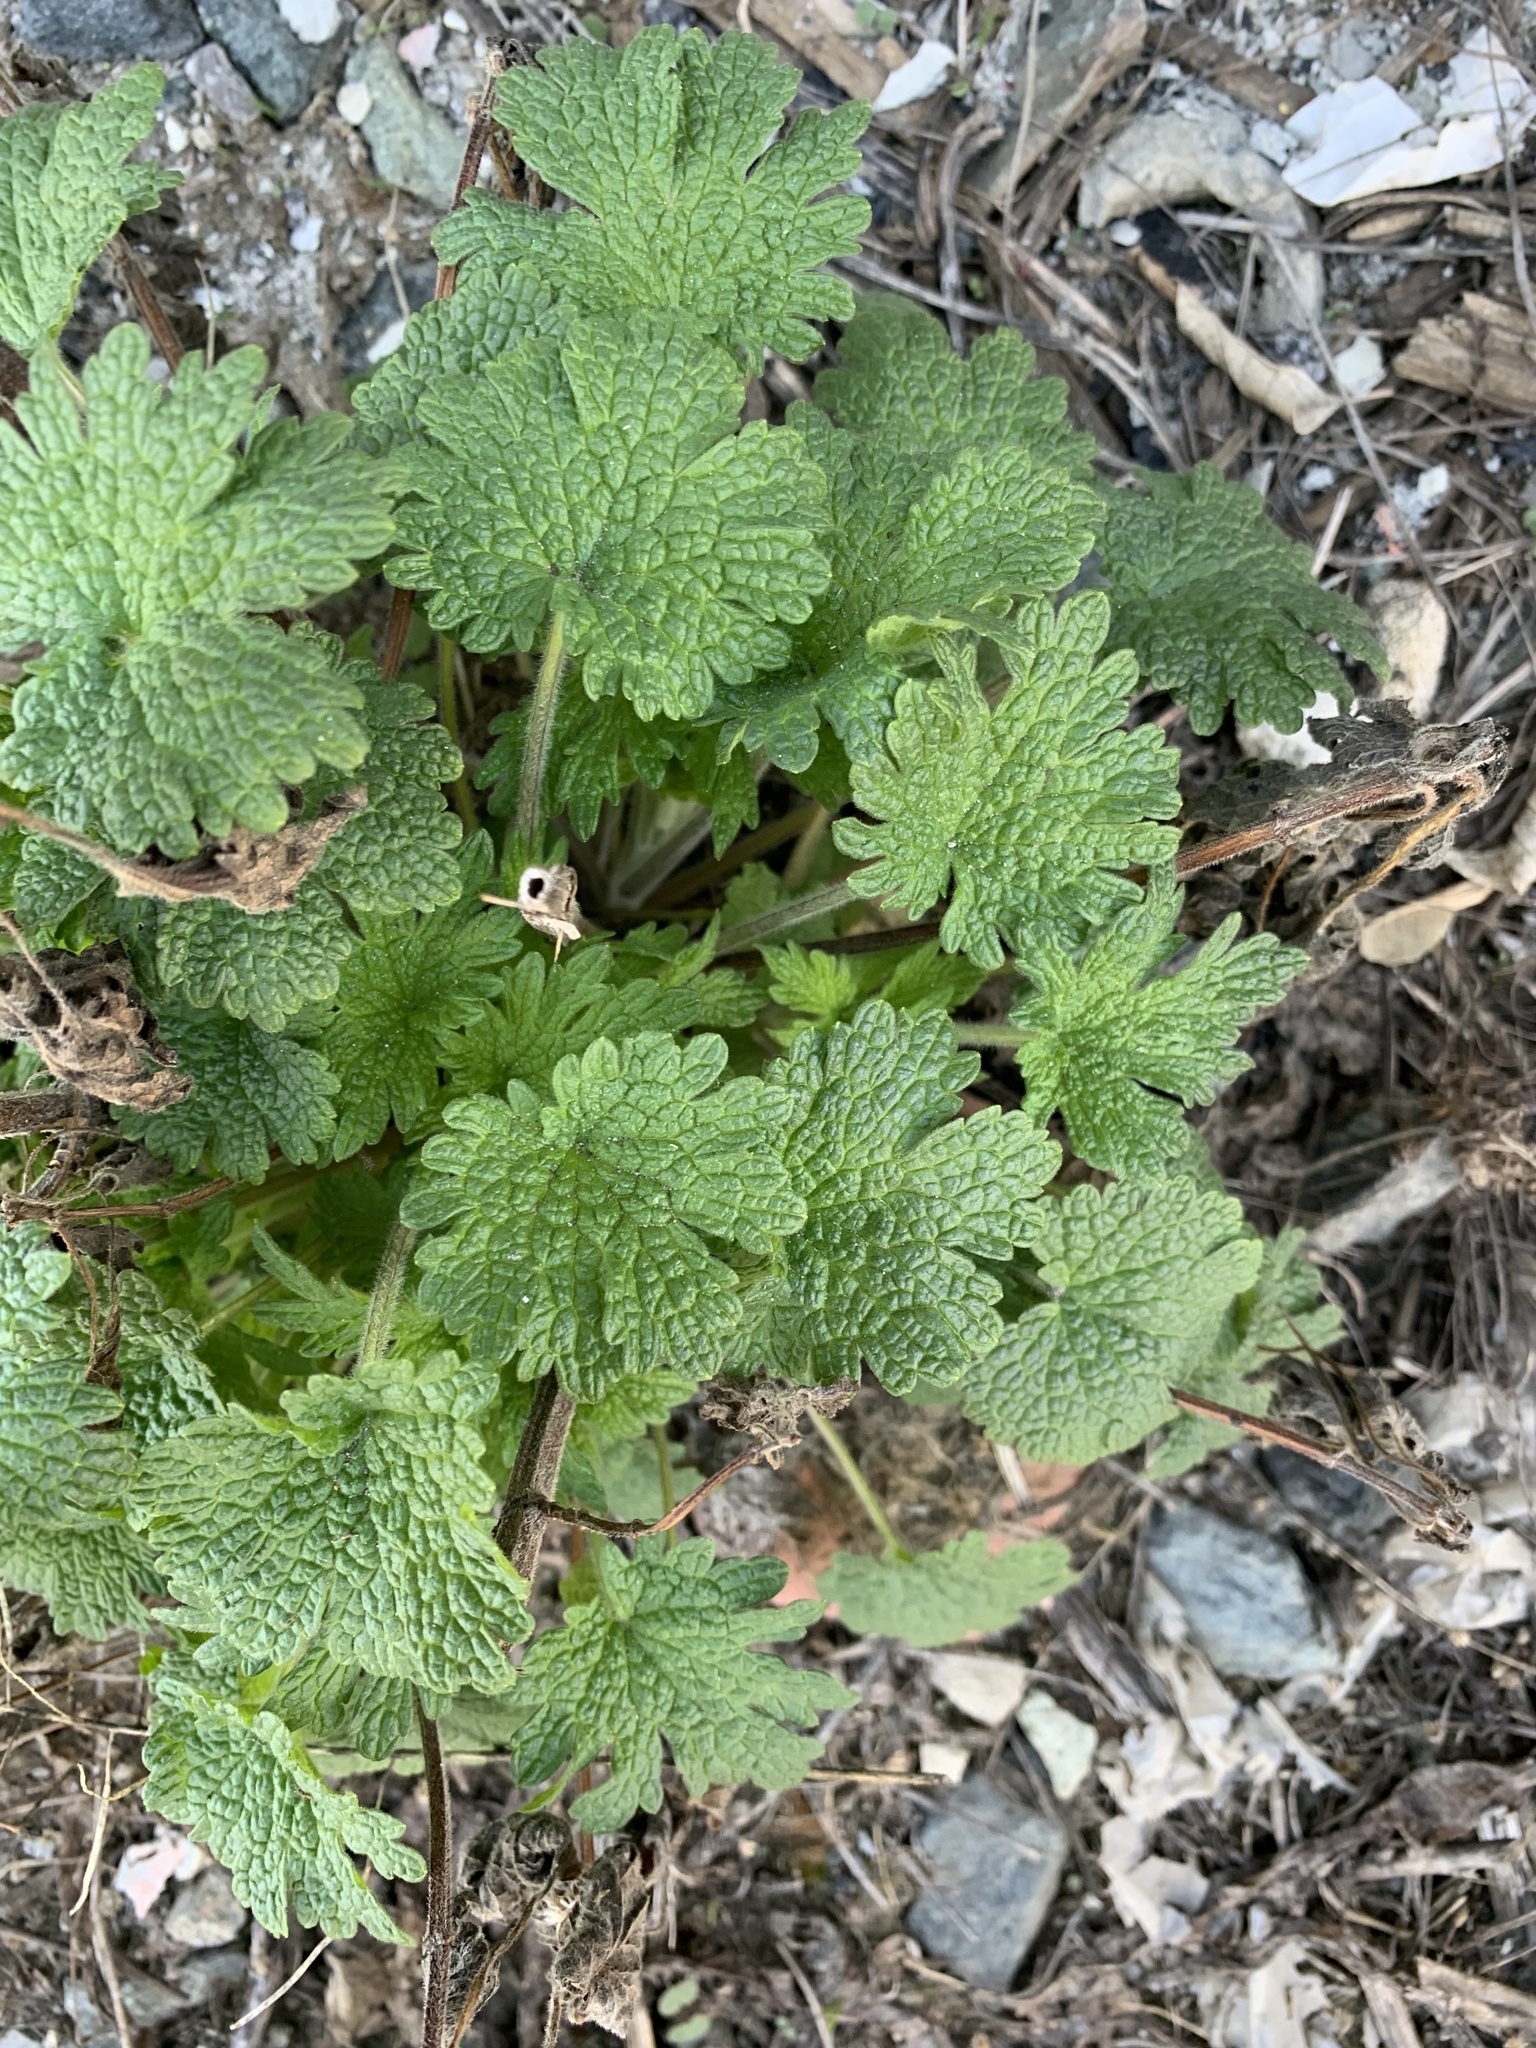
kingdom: Plantae
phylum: Tracheophyta
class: Magnoliopsida
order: Lamiales
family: Lamiaceae
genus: Leonurus
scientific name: Leonurus quinquelobatus
